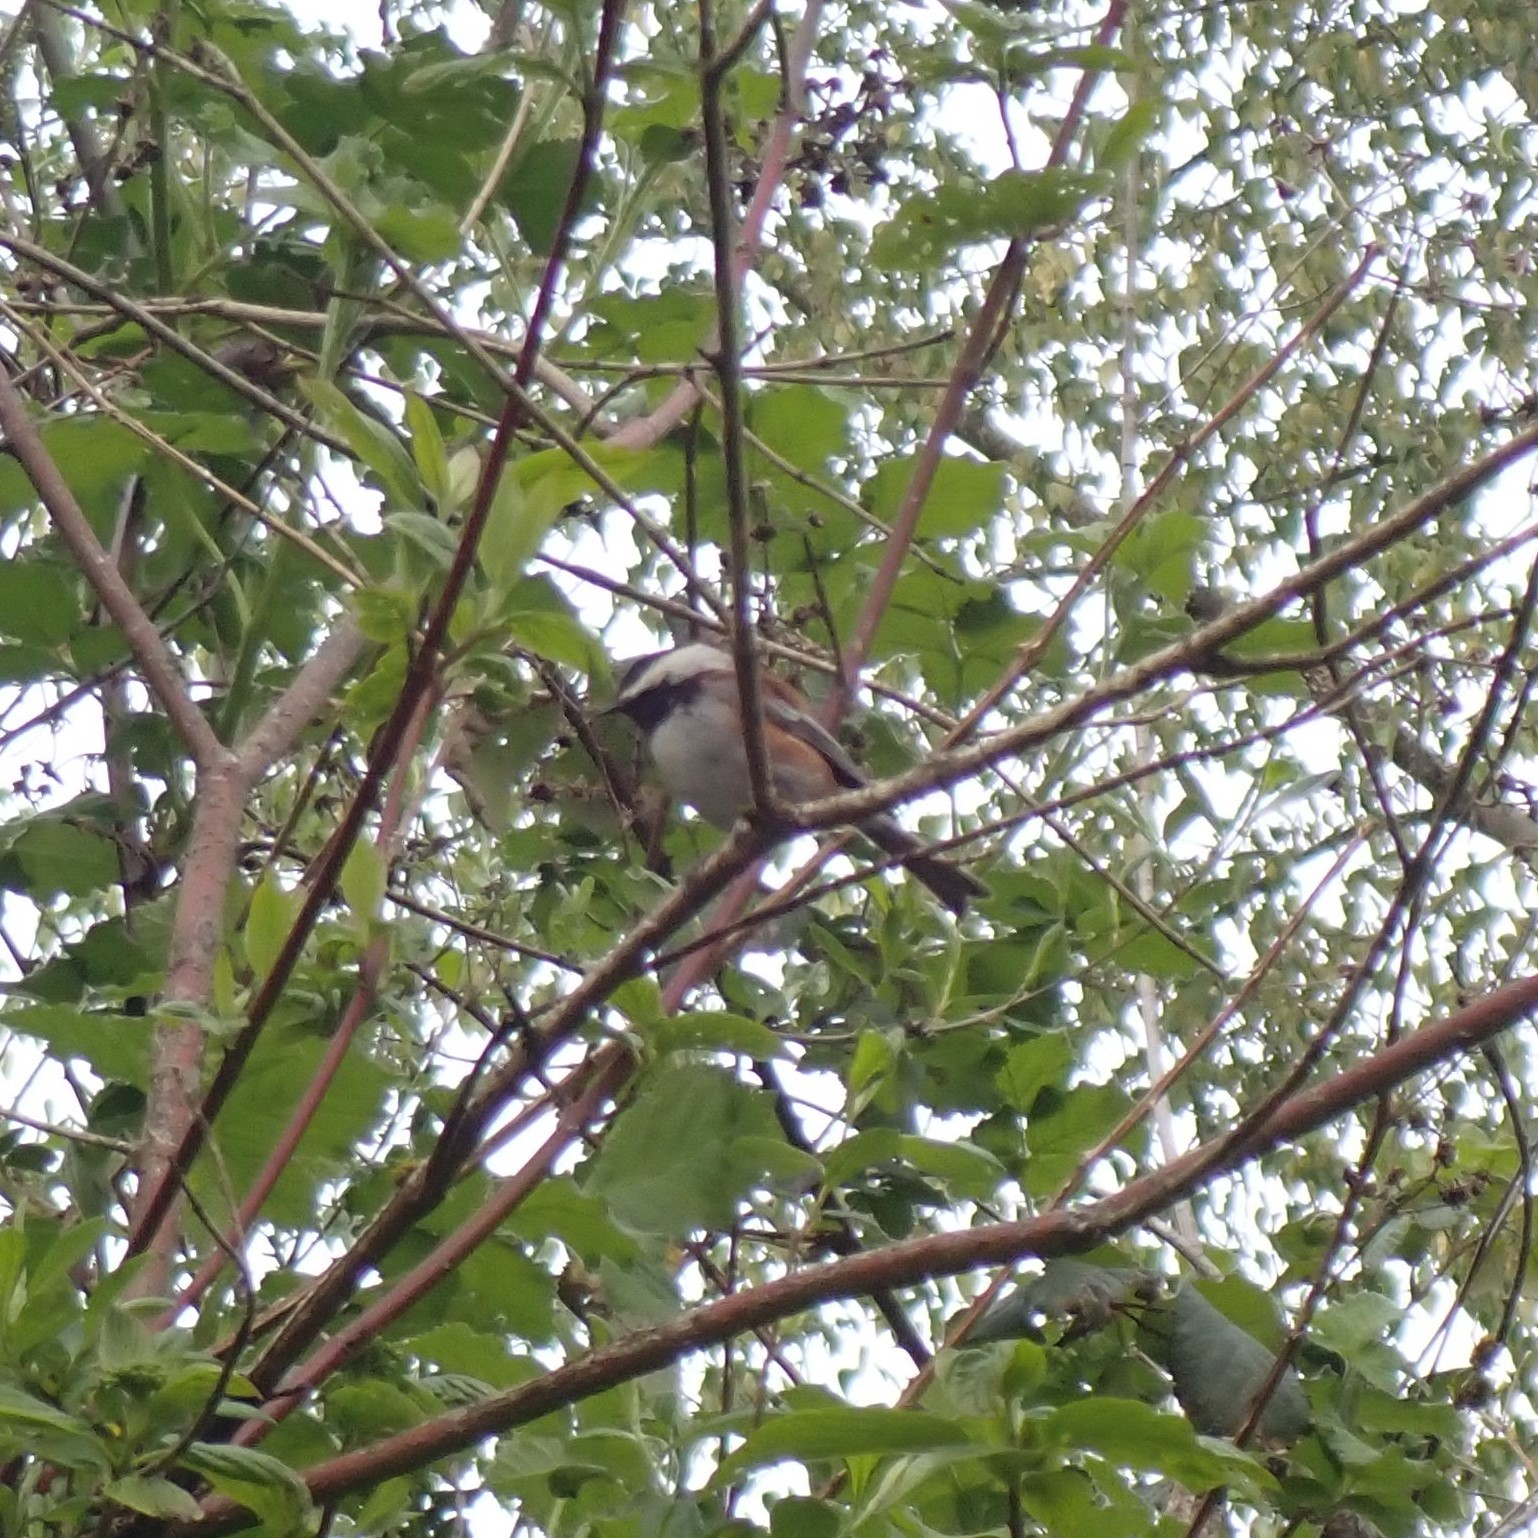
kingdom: Animalia
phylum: Chordata
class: Aves
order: Passeriformes
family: Paridae
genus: Poecile
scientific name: Poecile rufescens
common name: Chestnut-backed chickadee
